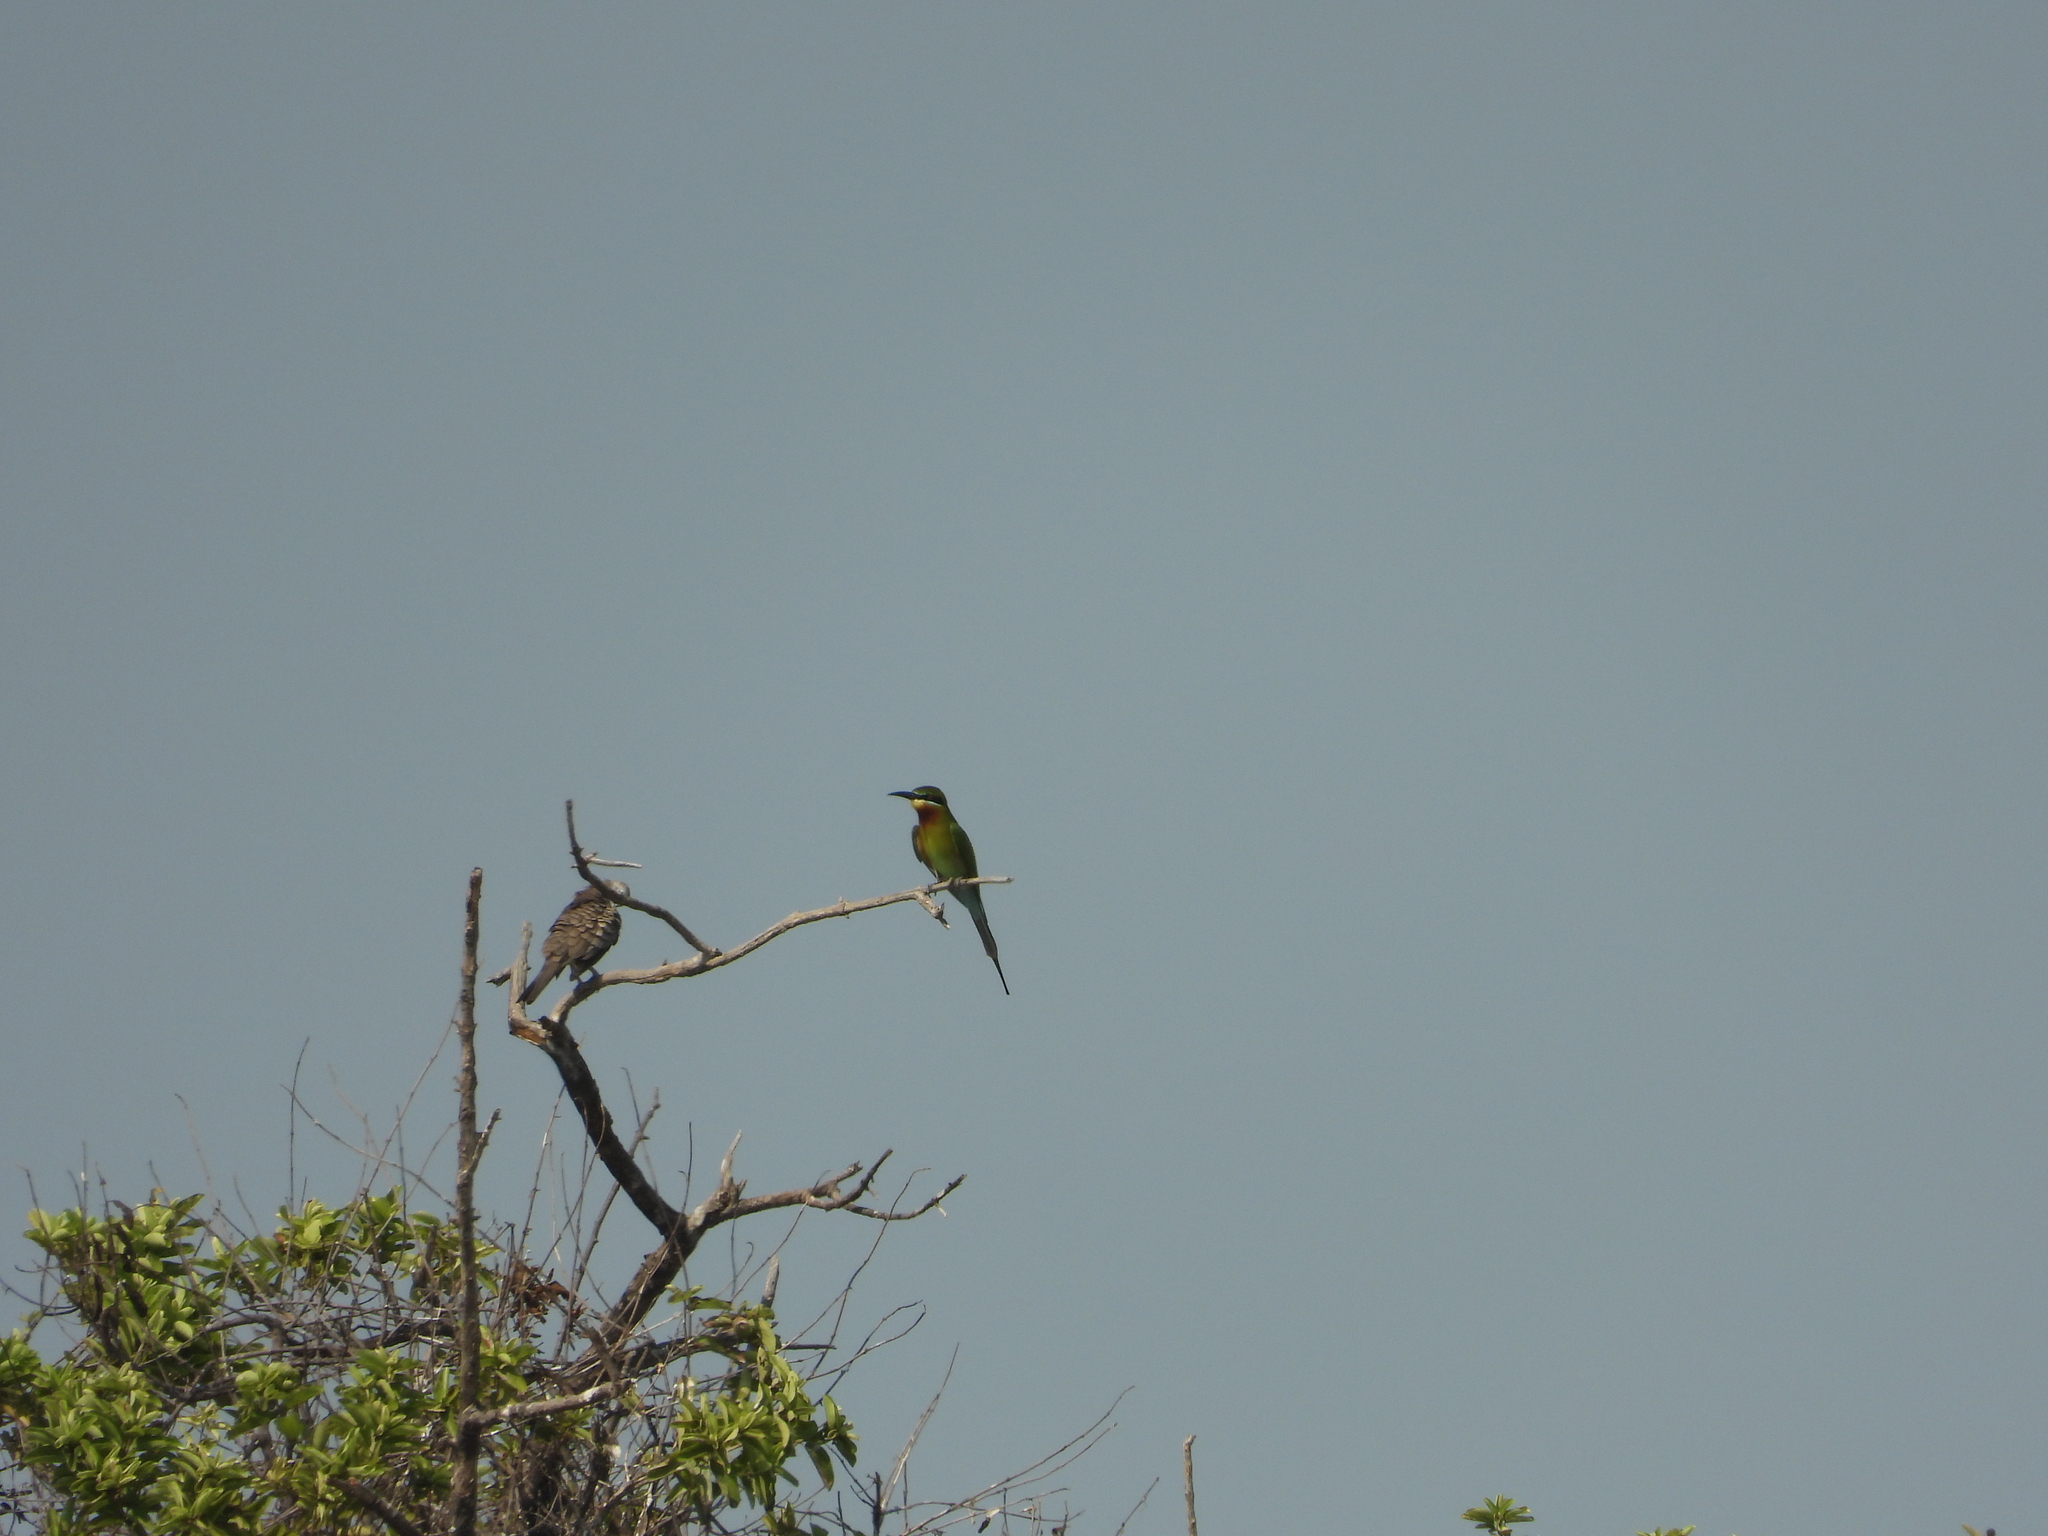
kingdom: Animalia
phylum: Chordata
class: Aves
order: Coraciiformes
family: Meropidae
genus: Merops
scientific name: Merops philippinus
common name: Blue-tailed bee-eater
